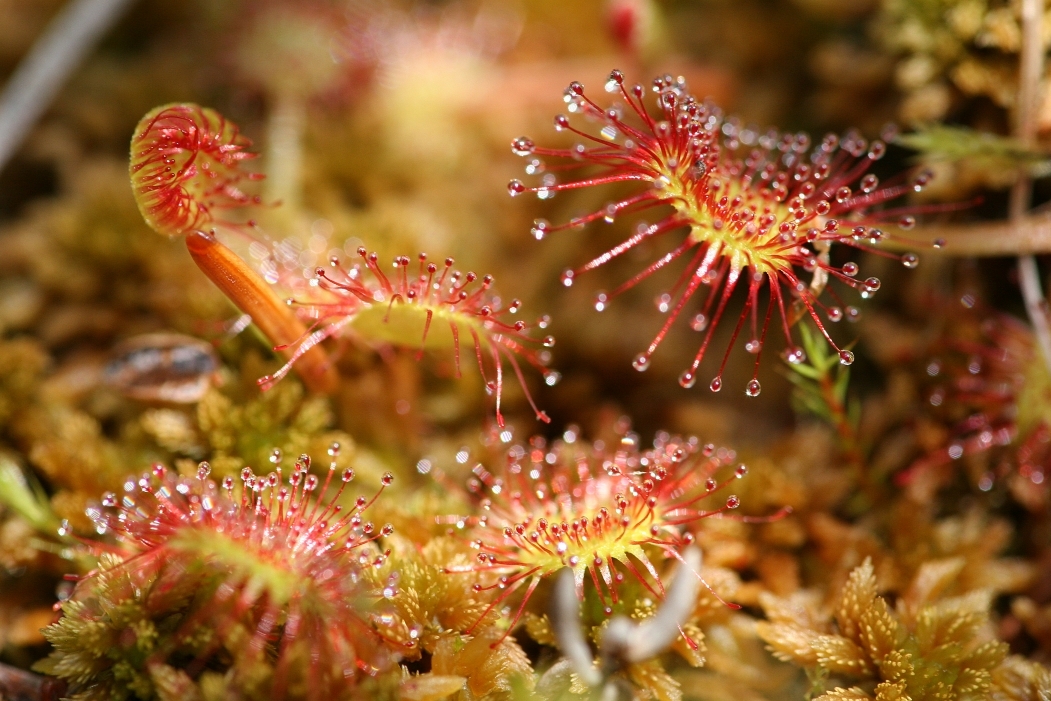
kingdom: Plantae
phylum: Tracheophyta
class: Magnoliopsida
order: Caryophyllales
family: Droseraceae
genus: Drosera
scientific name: Drosera rotundifolia
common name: Round-leaved sundew
